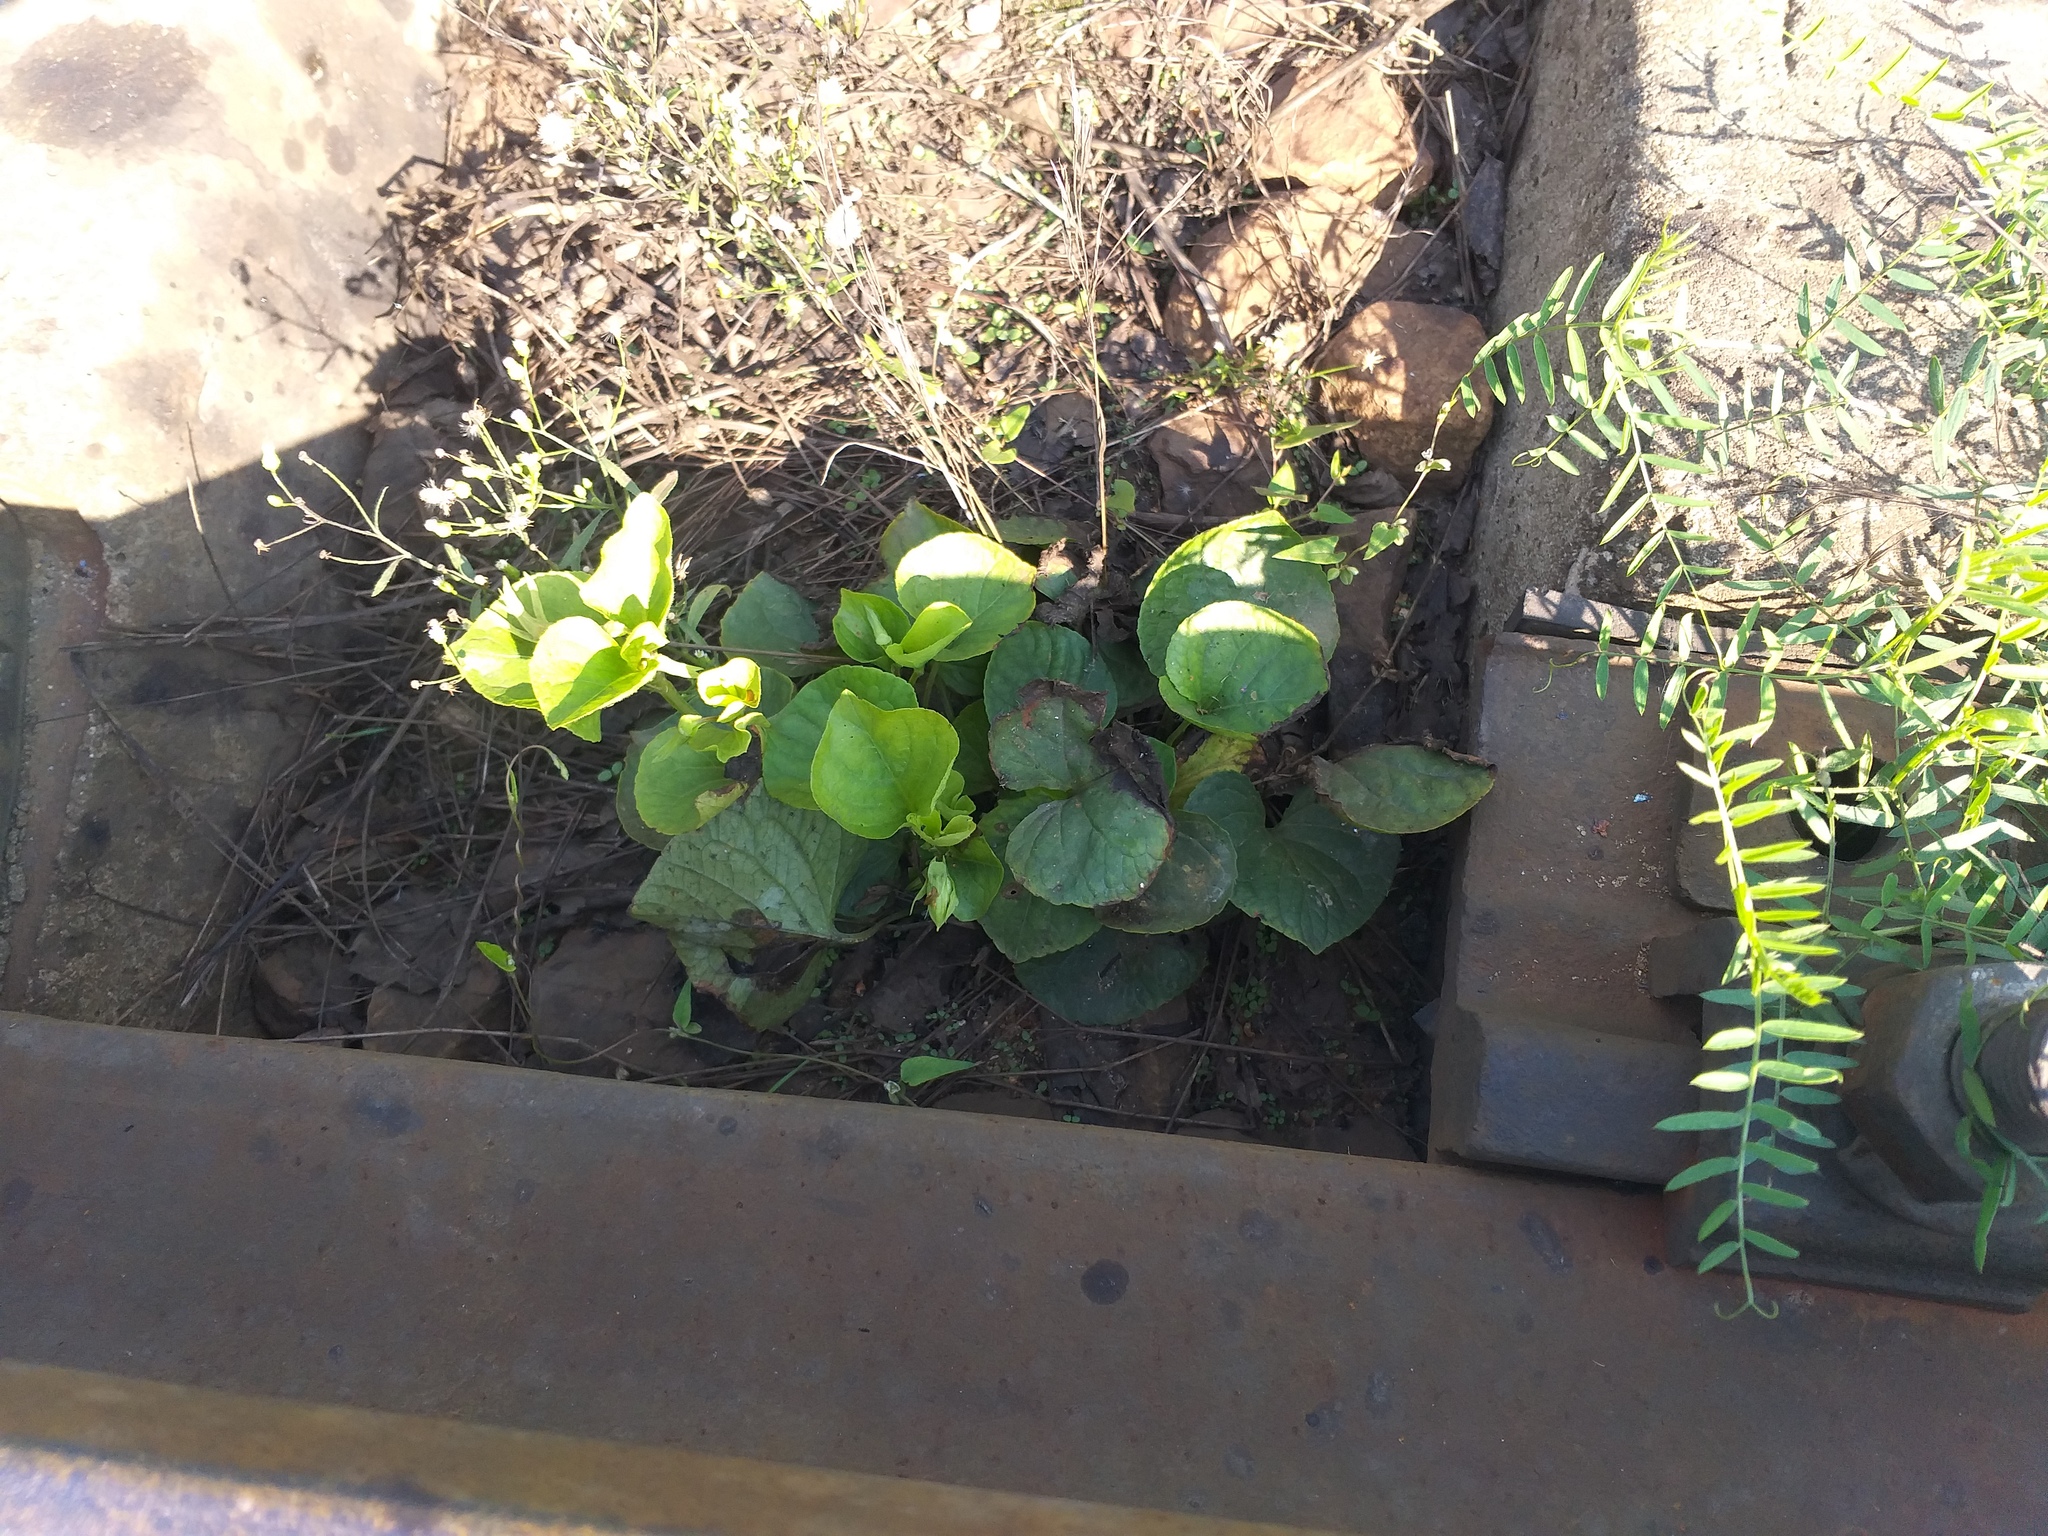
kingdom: Plantae
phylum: Tracheophyta
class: Magnoliopsida
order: Malpighiales
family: Violaceae
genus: Viola
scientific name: Viola mirabilis
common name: Wonder violet
